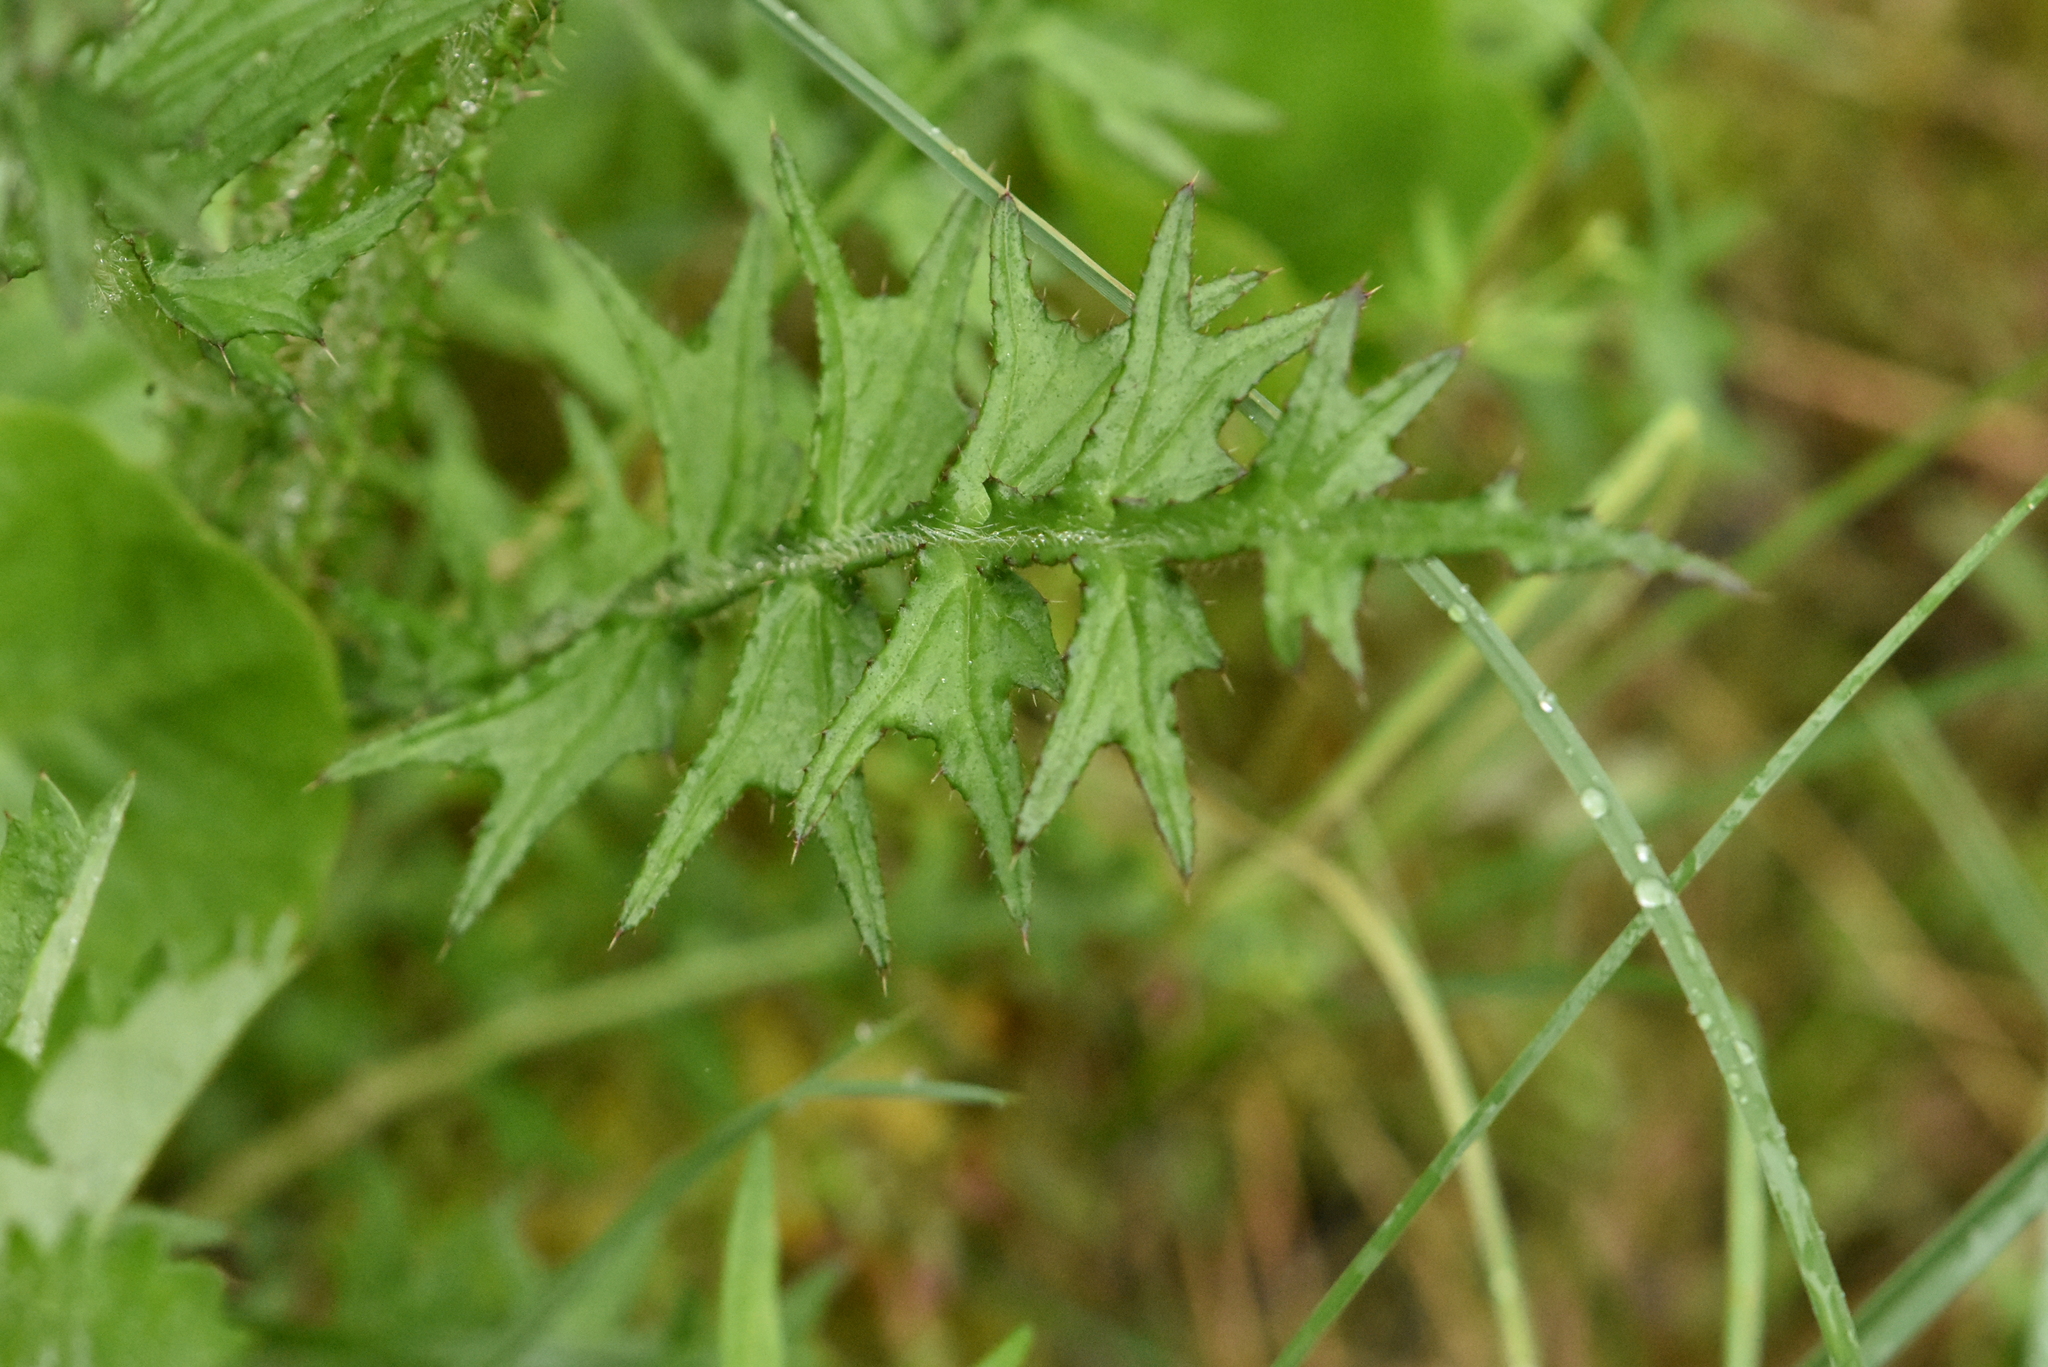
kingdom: Plantae
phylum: Tracheophyta
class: Magnoliopsida
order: Asterales
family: Asteraceae
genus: Cirsium
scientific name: Cirsium palustre
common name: Marsh thistle
